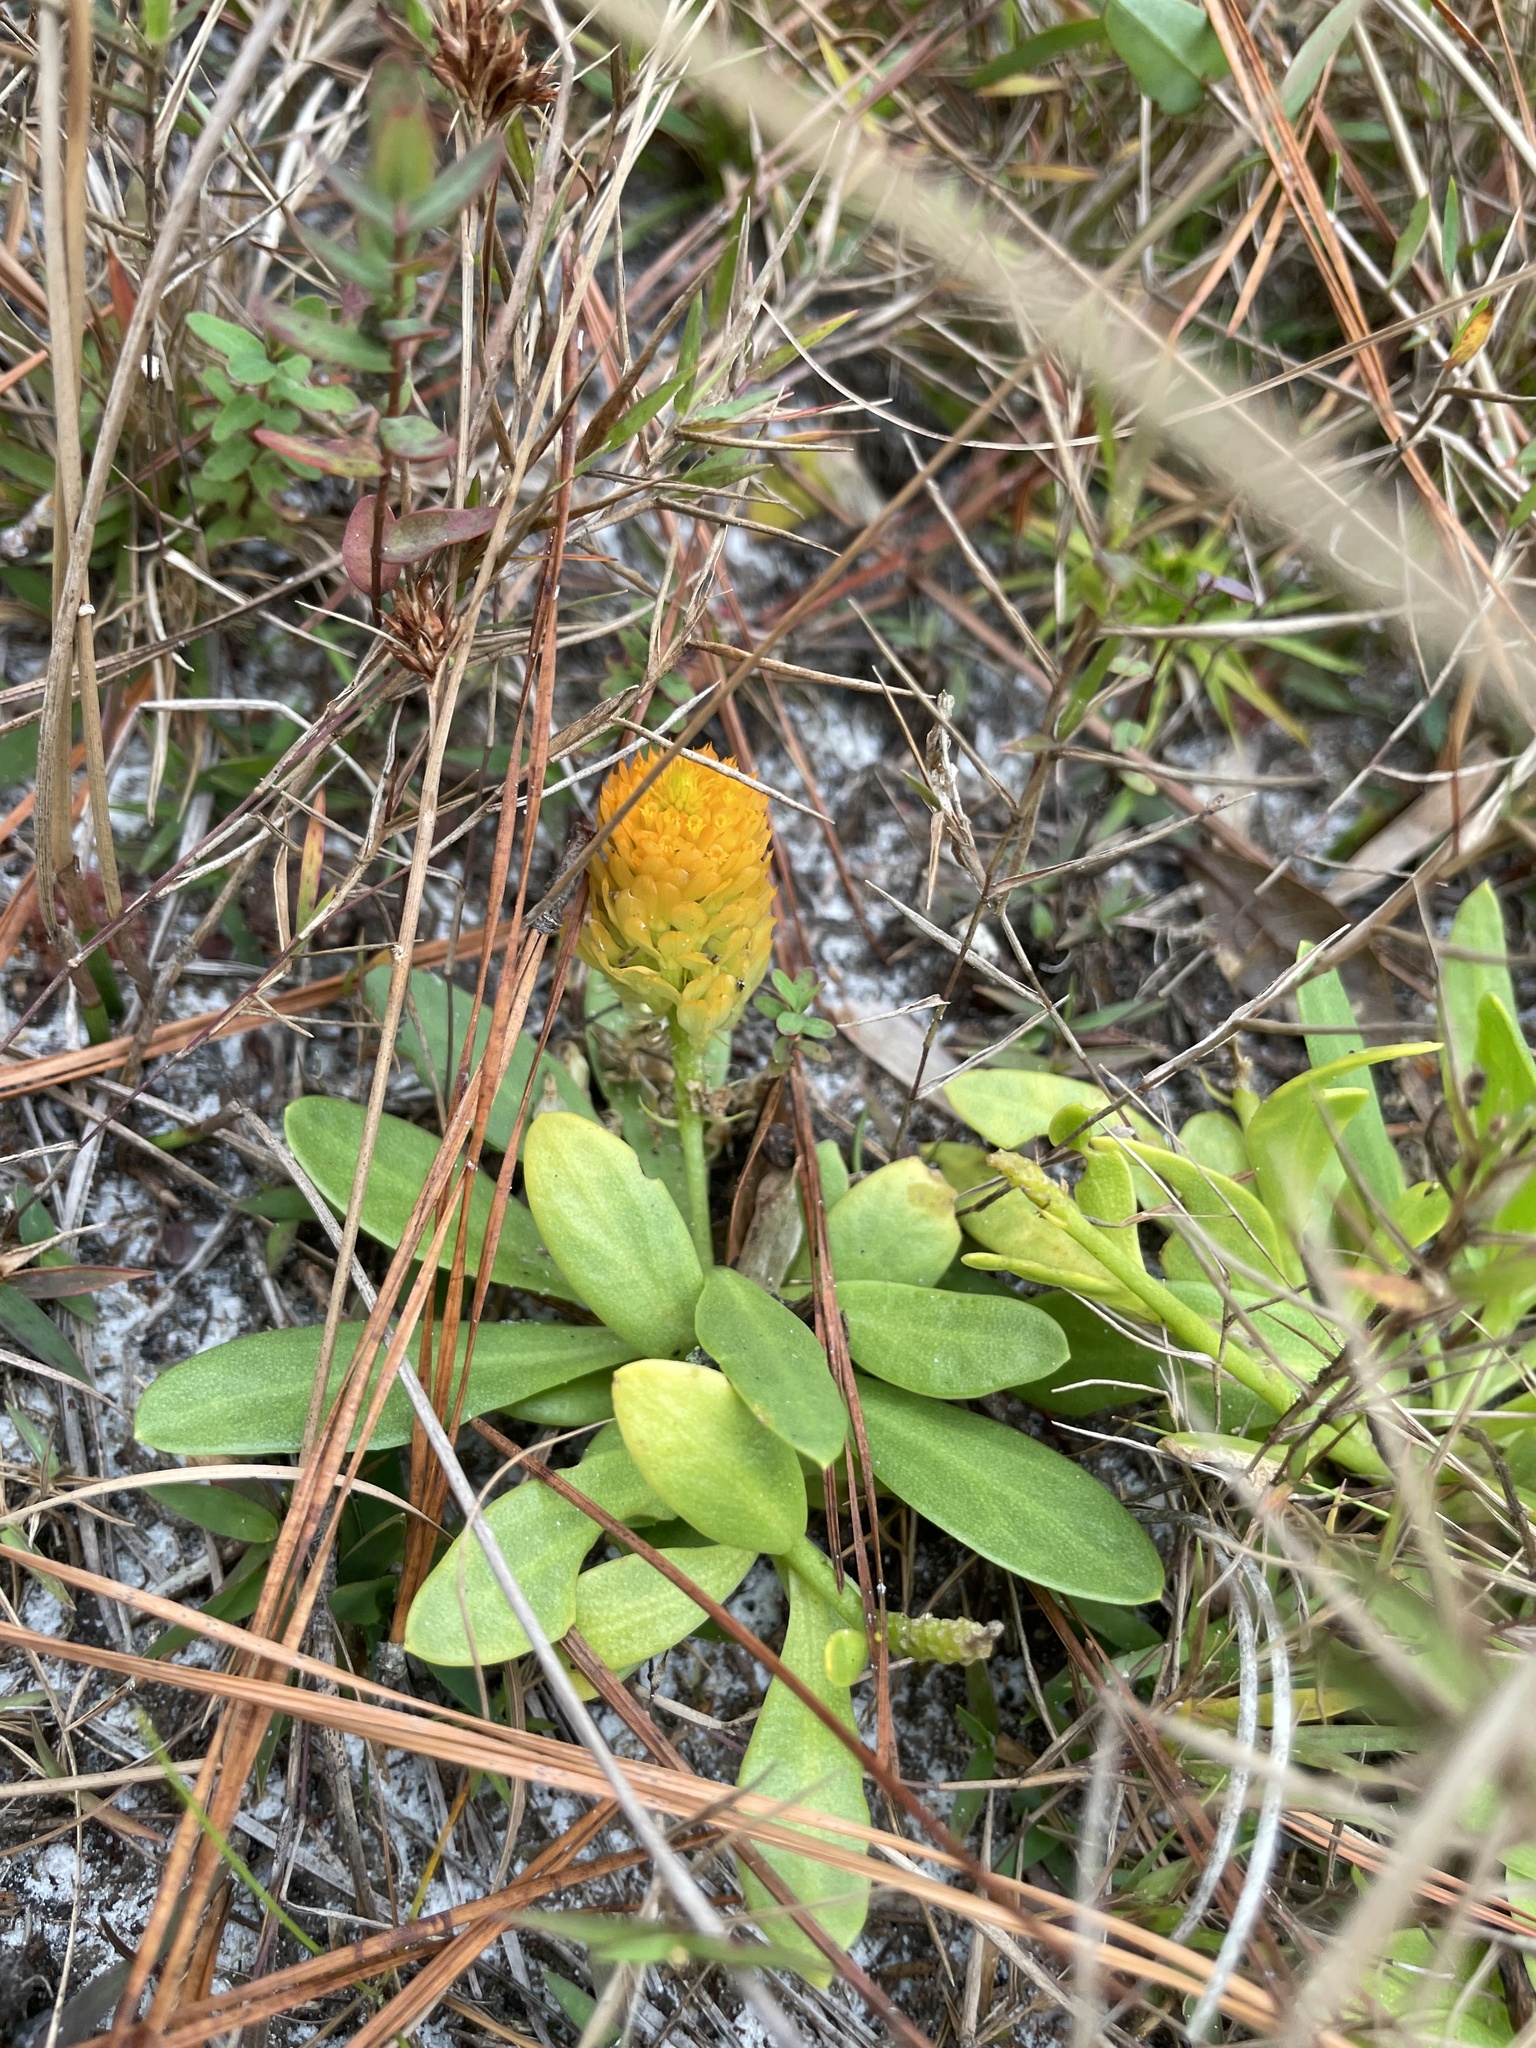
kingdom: Plantae
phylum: Tracheophyta
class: Magnoliopsida
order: Fabales
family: Polygalaceae
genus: Polygala
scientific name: Polygala lutea
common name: Orange milkwort
